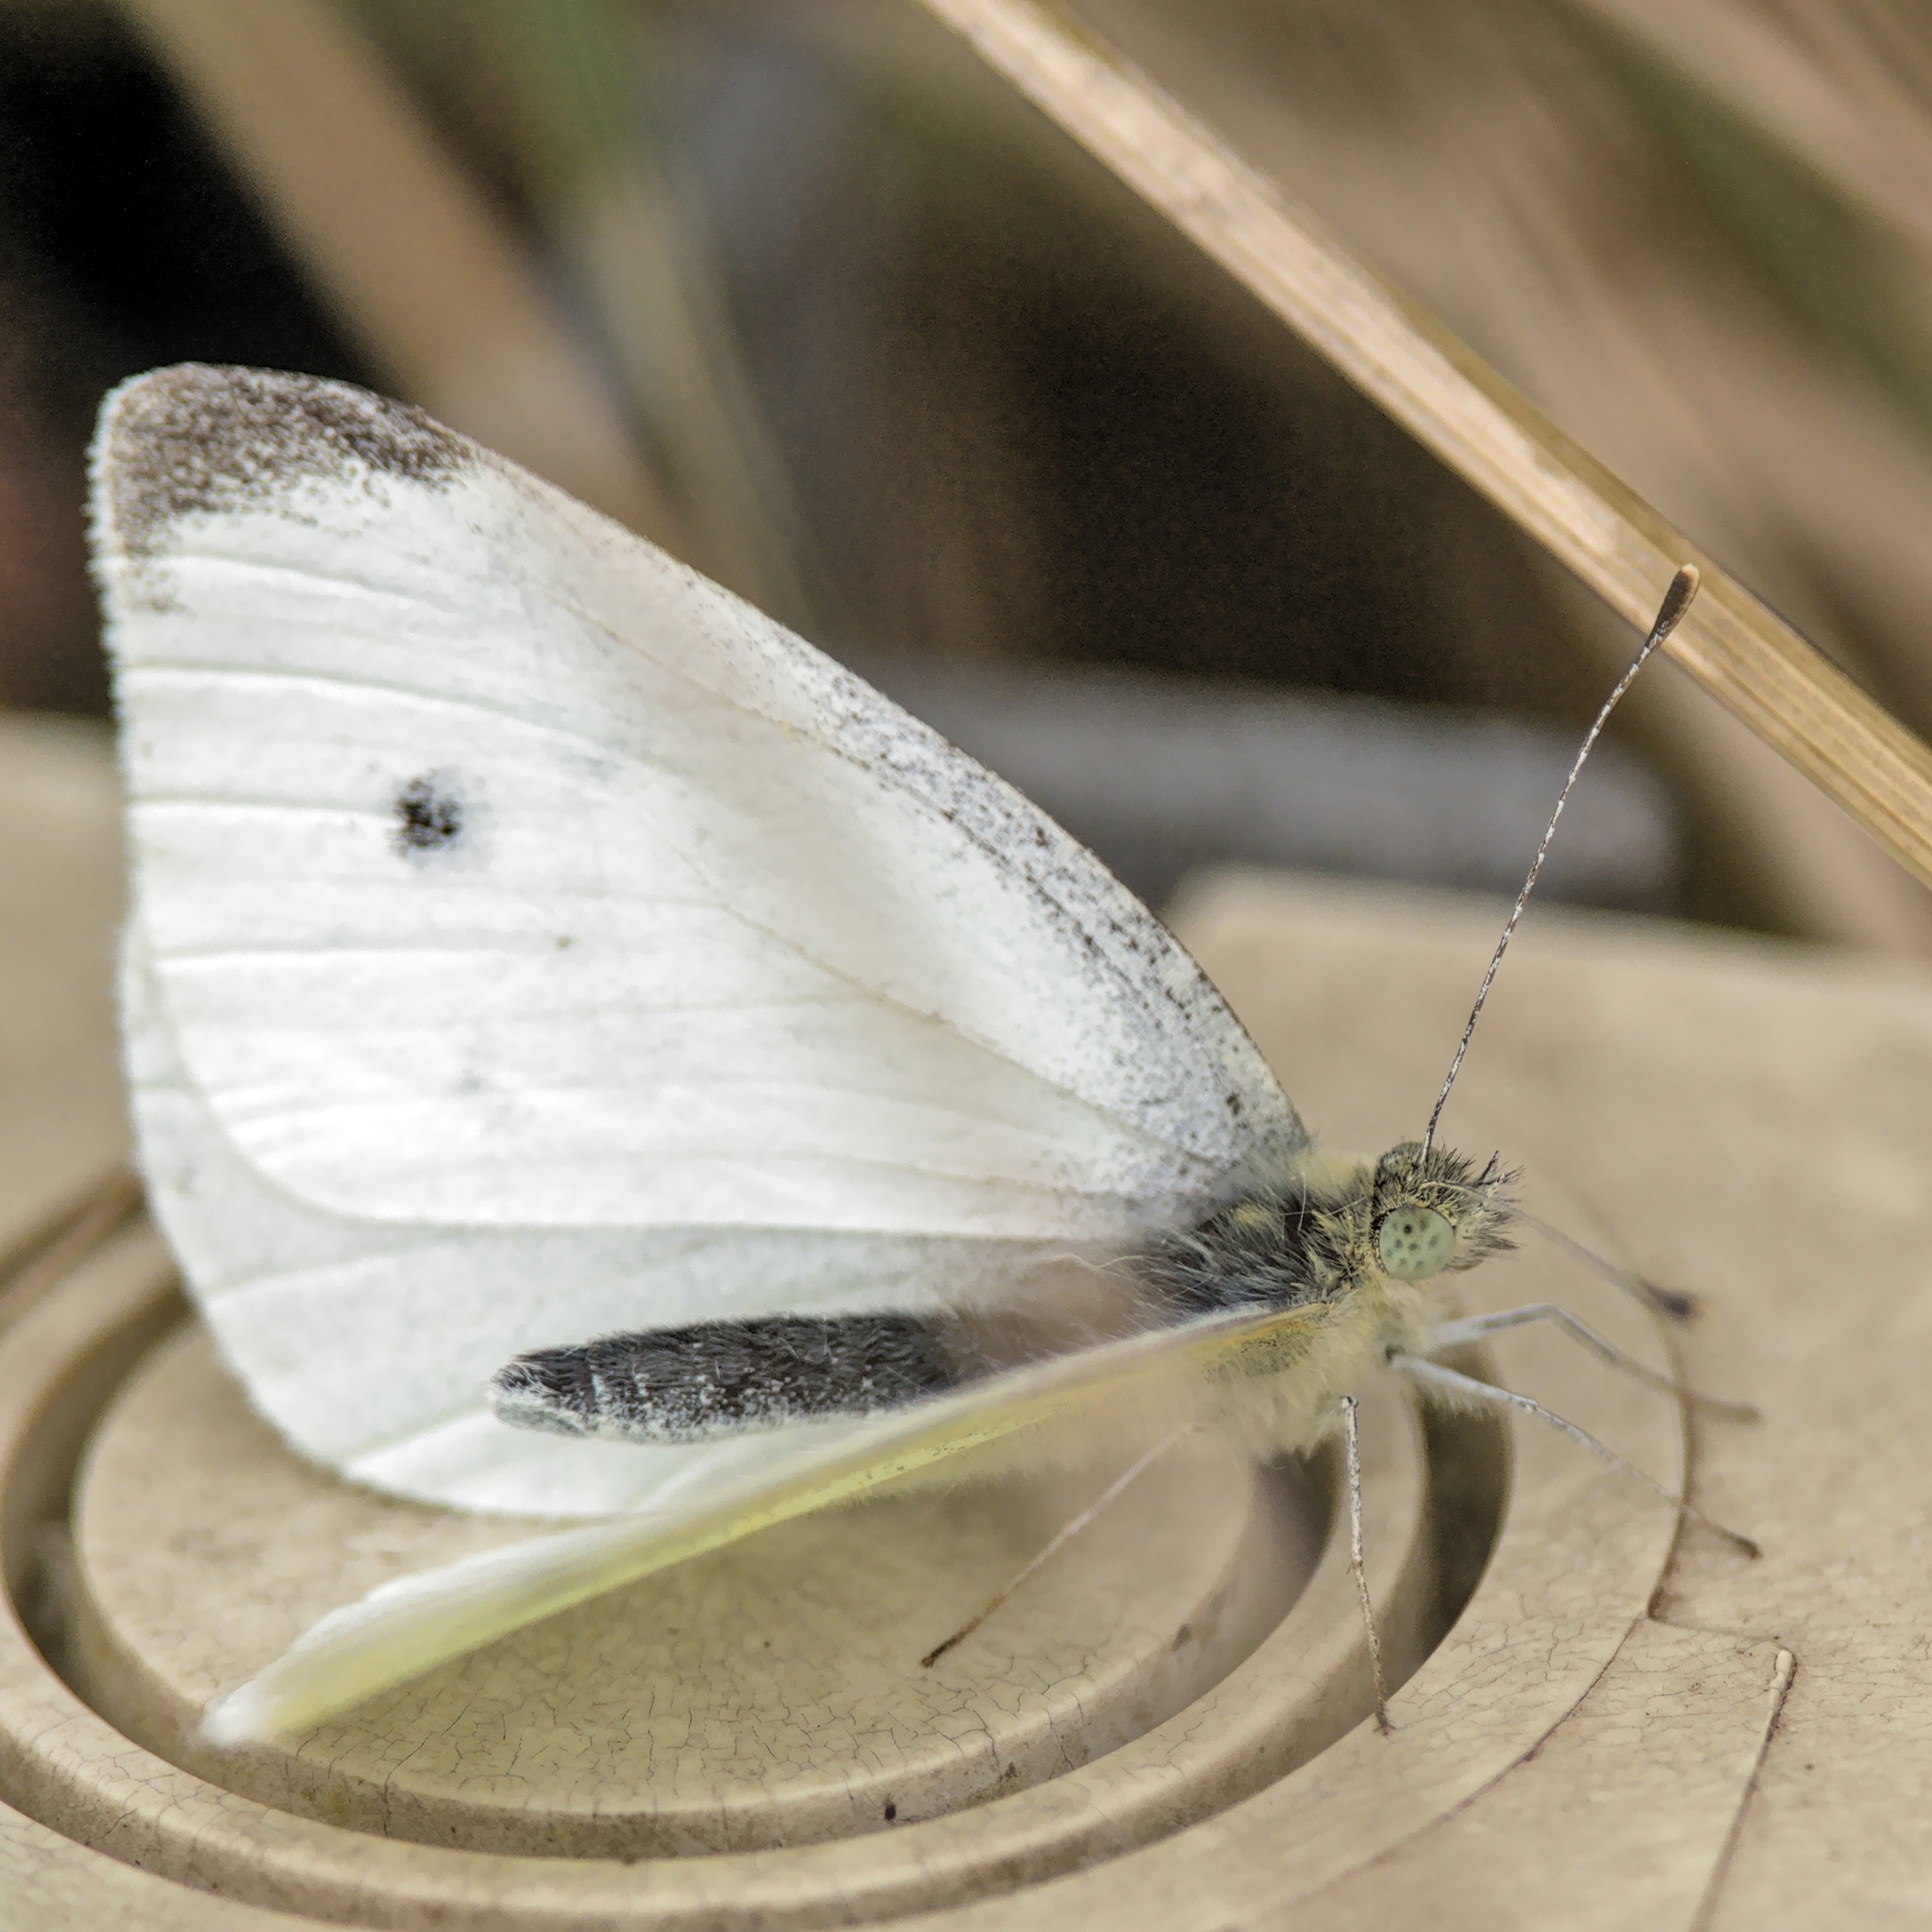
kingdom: Animalia
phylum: Arthropoda
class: Insecta
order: Lepidoptera
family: Pieridae
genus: Pieris
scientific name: Pieris rapae
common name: Small white
